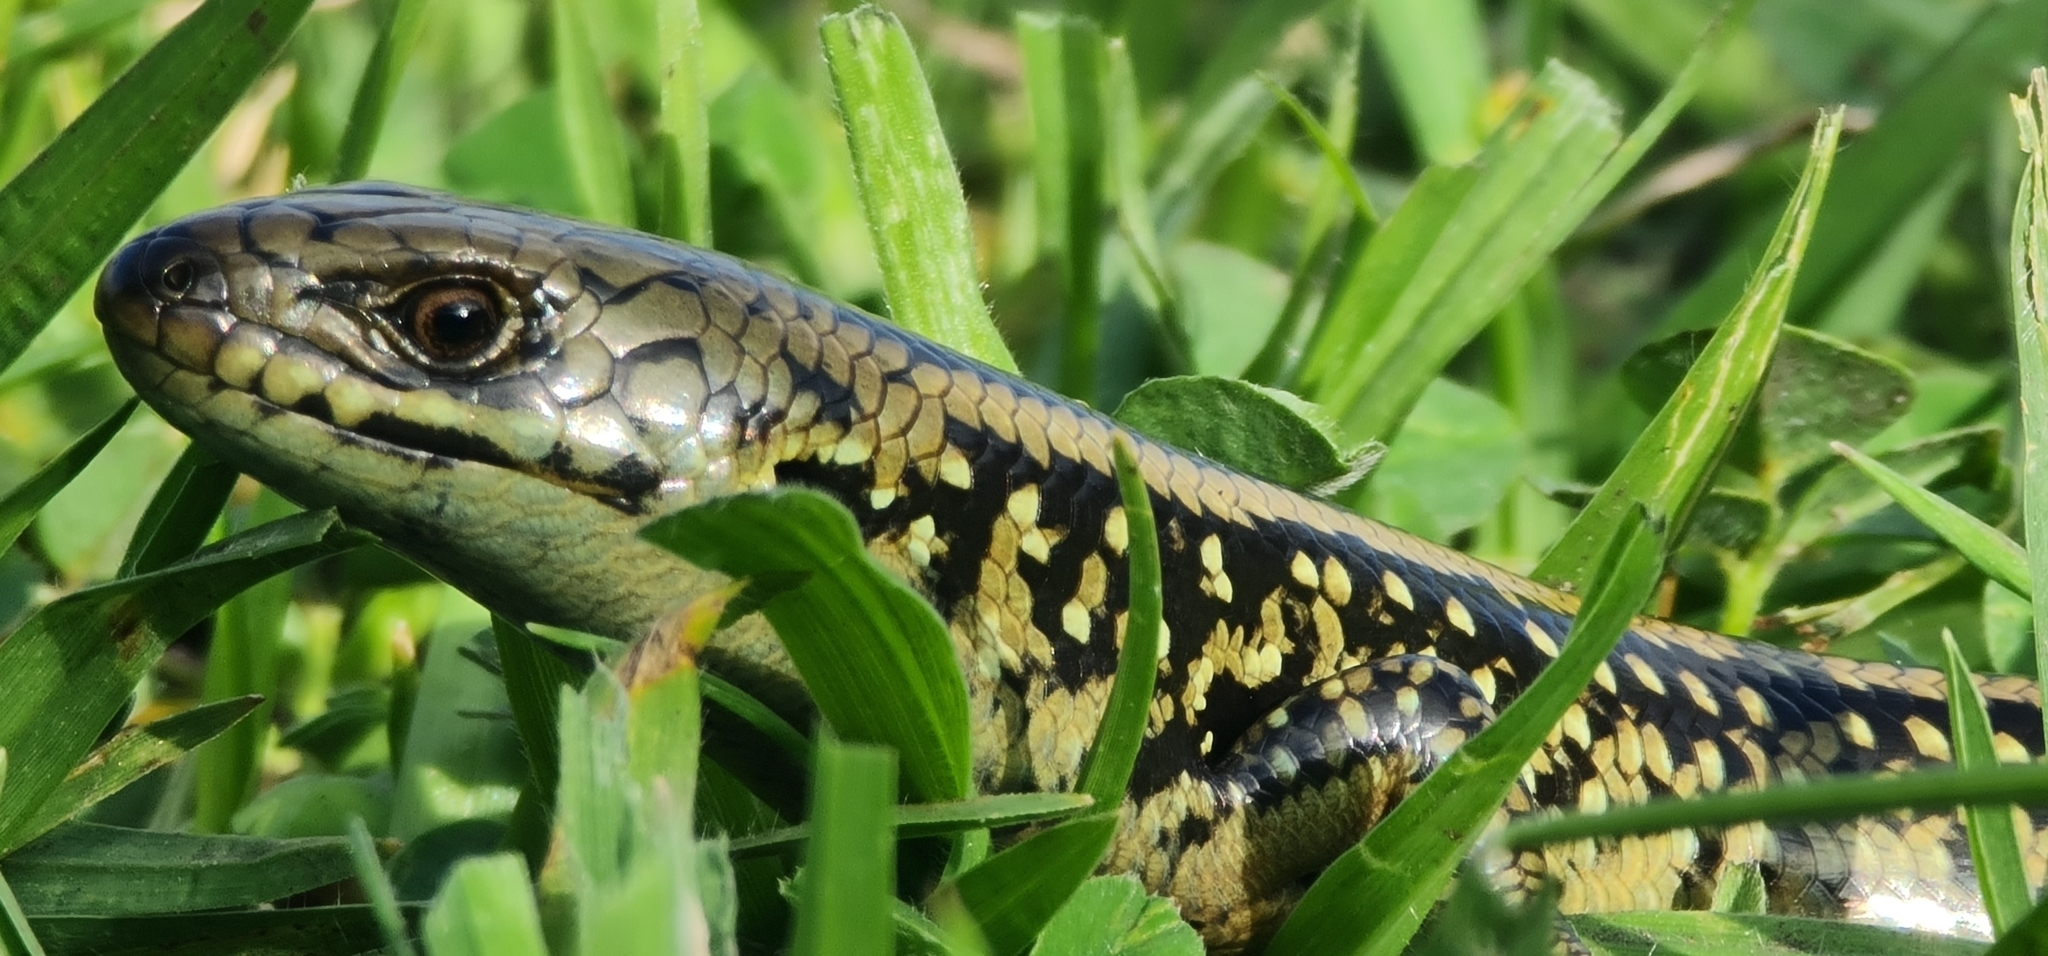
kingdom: Animalia
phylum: Chordata
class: Squamata
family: Scincidae
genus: Lissolepis
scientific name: Lissolepis coventryi
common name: Eastern mourning skink
